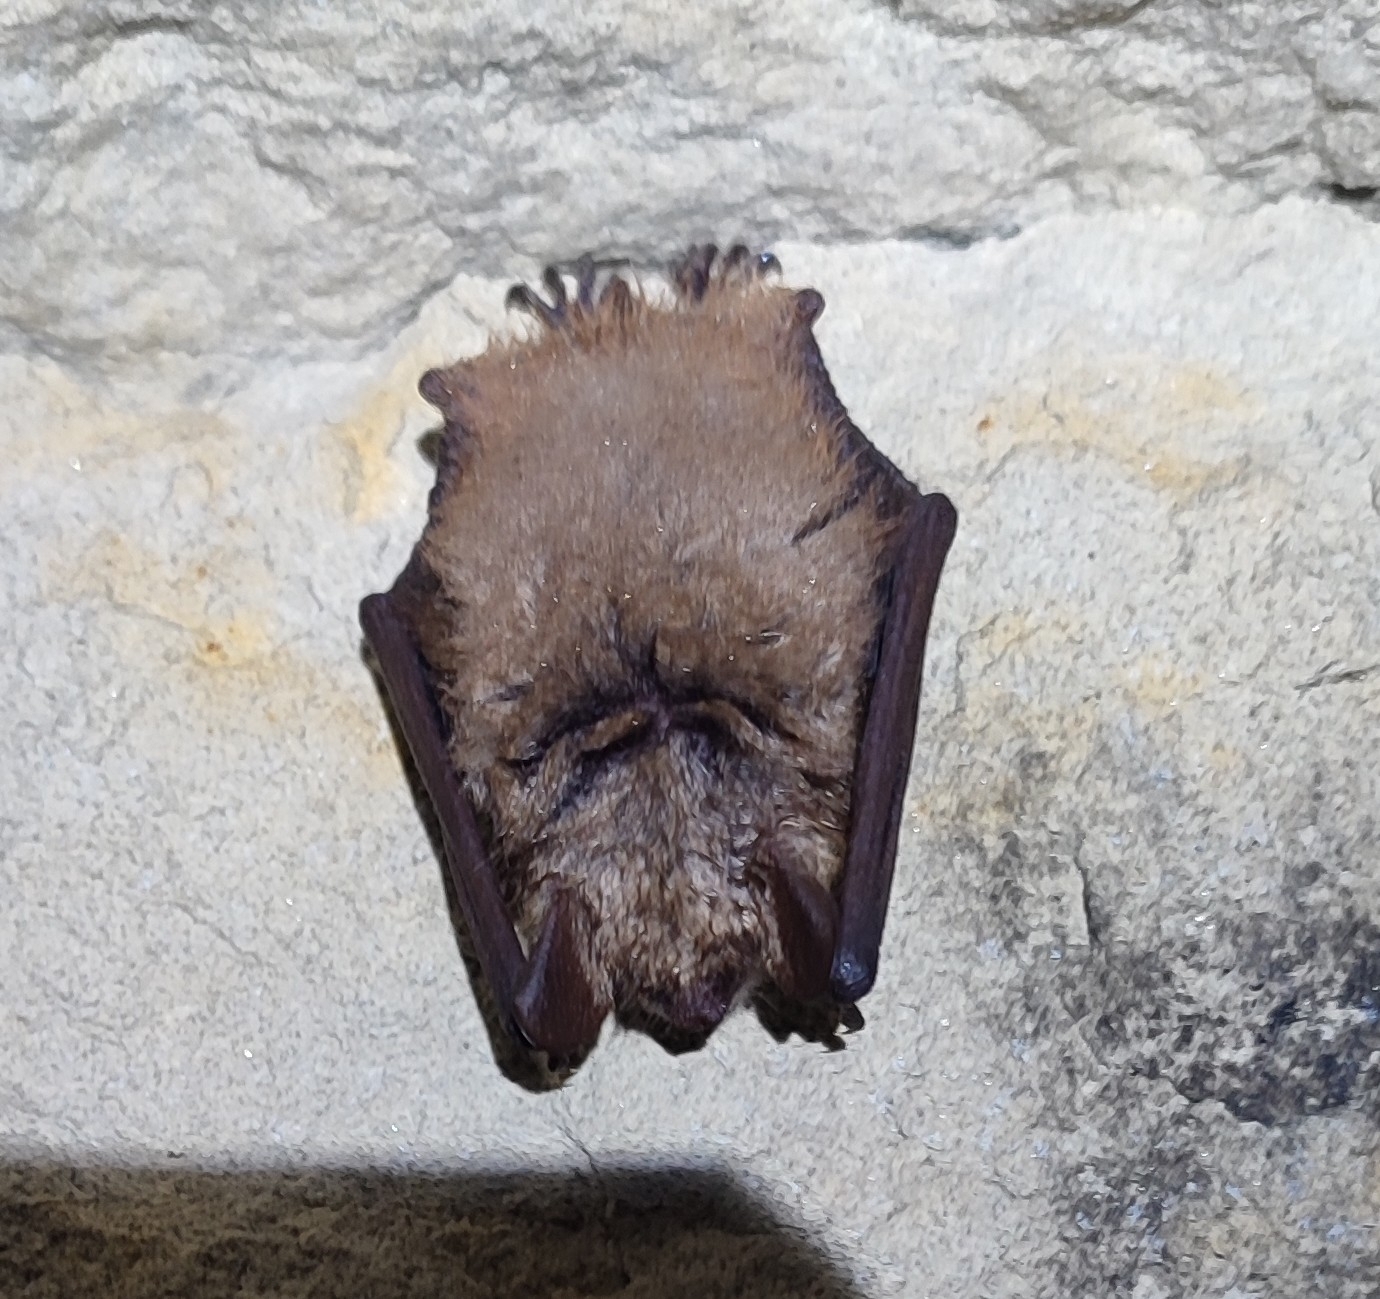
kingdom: Animalia
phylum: Chordata
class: Mammalia
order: Chiroptera
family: Vespertilionidae
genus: Myotis
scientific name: Myotis emarginatus
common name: Geoffroy's bat
